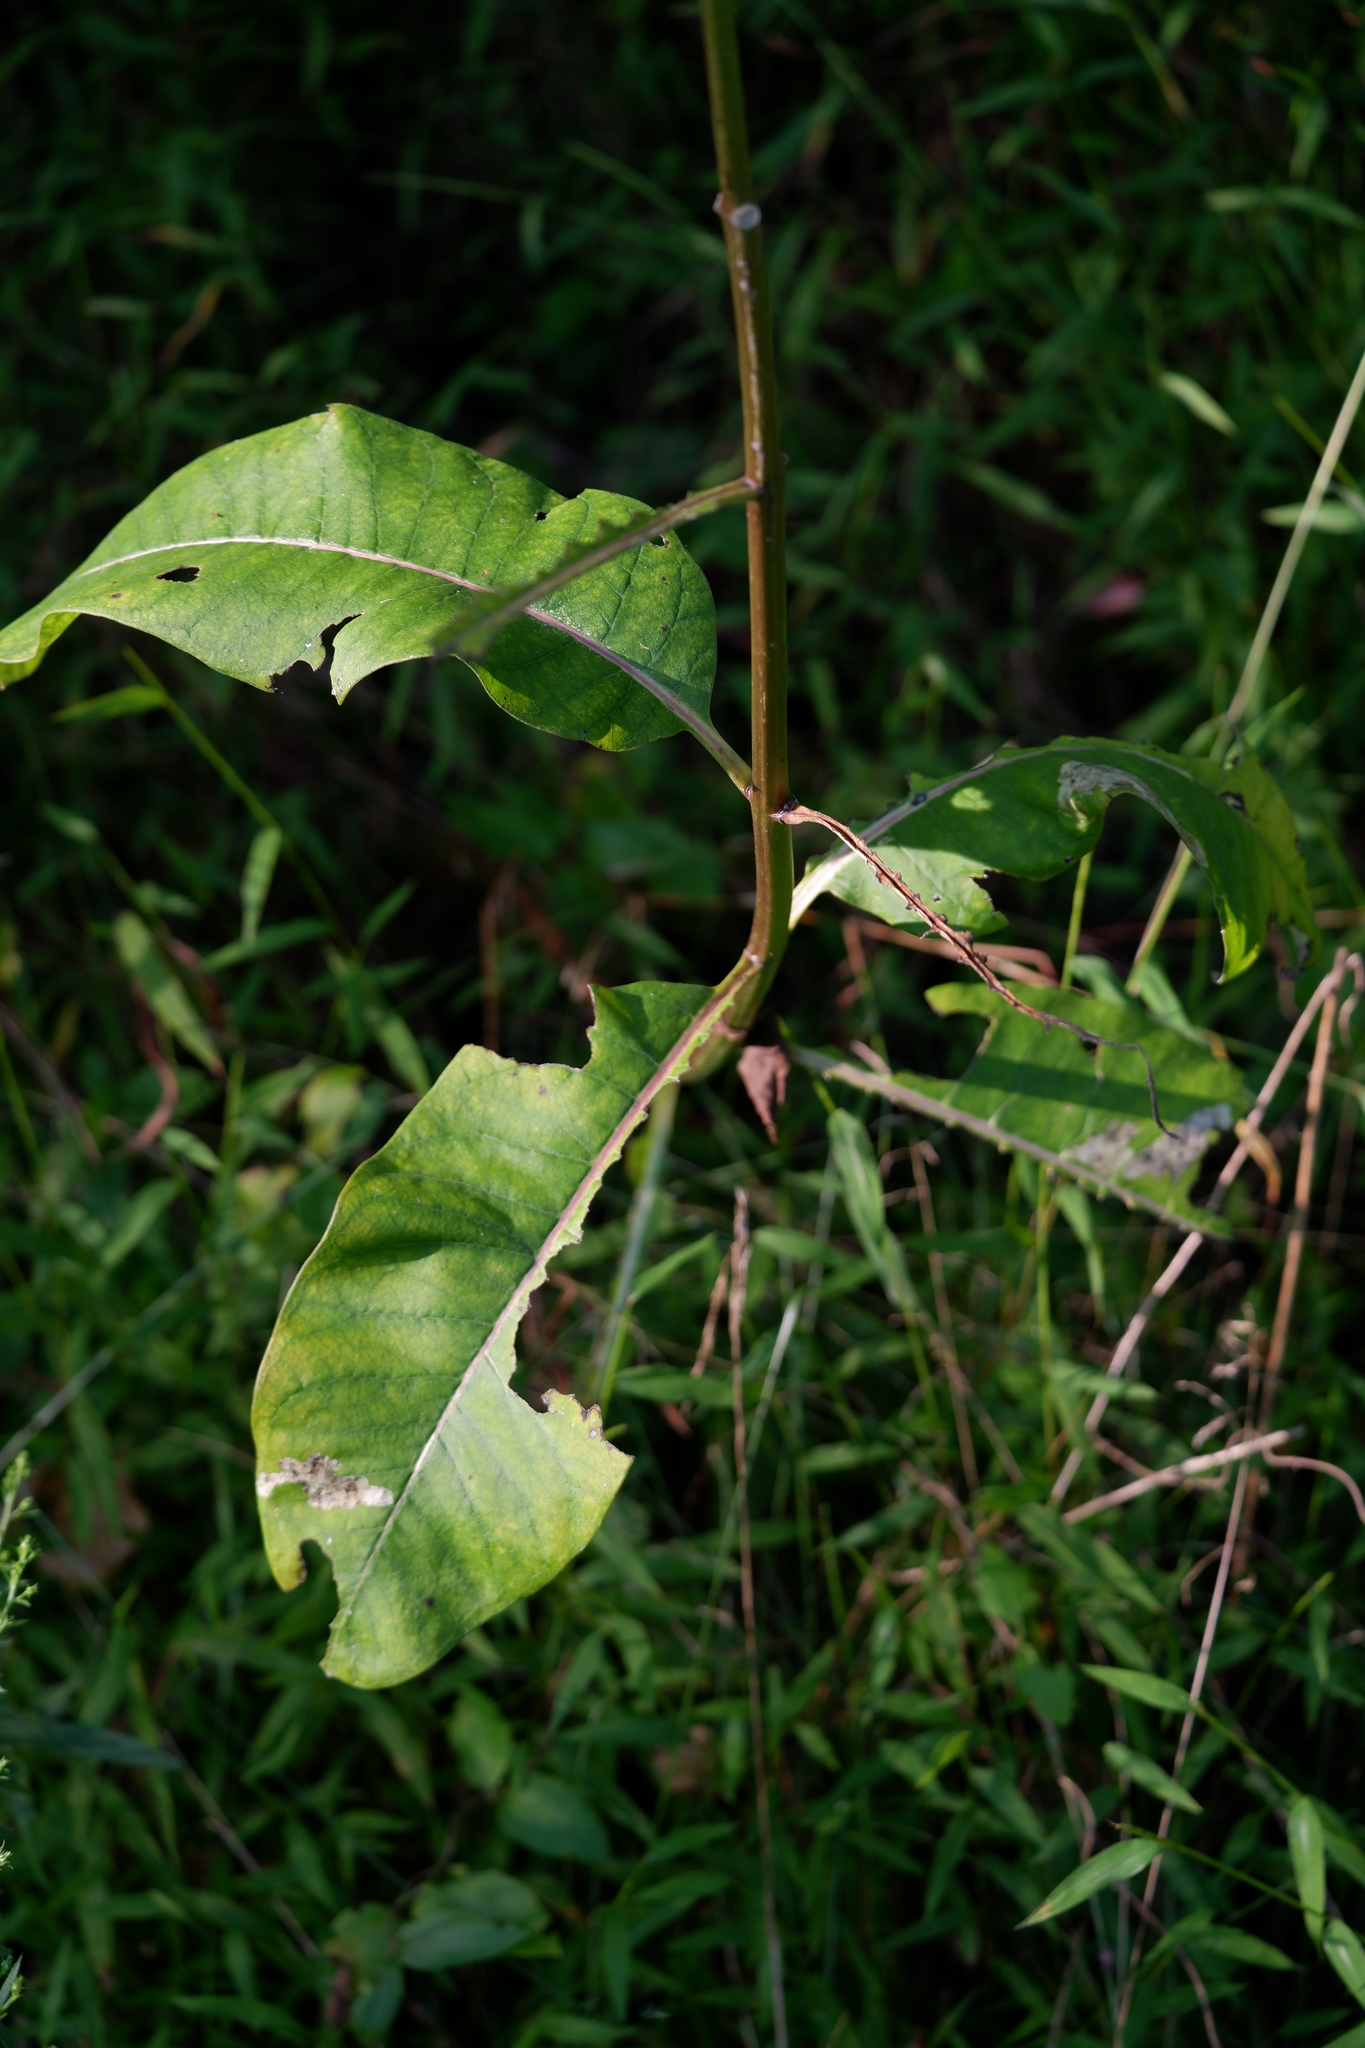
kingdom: Plantae
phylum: Tracheophyta
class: Magnoliopsida
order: Gentianales
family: Apocynaceae
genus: Asclepias
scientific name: Asclepias syriaca
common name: Common milkweed
